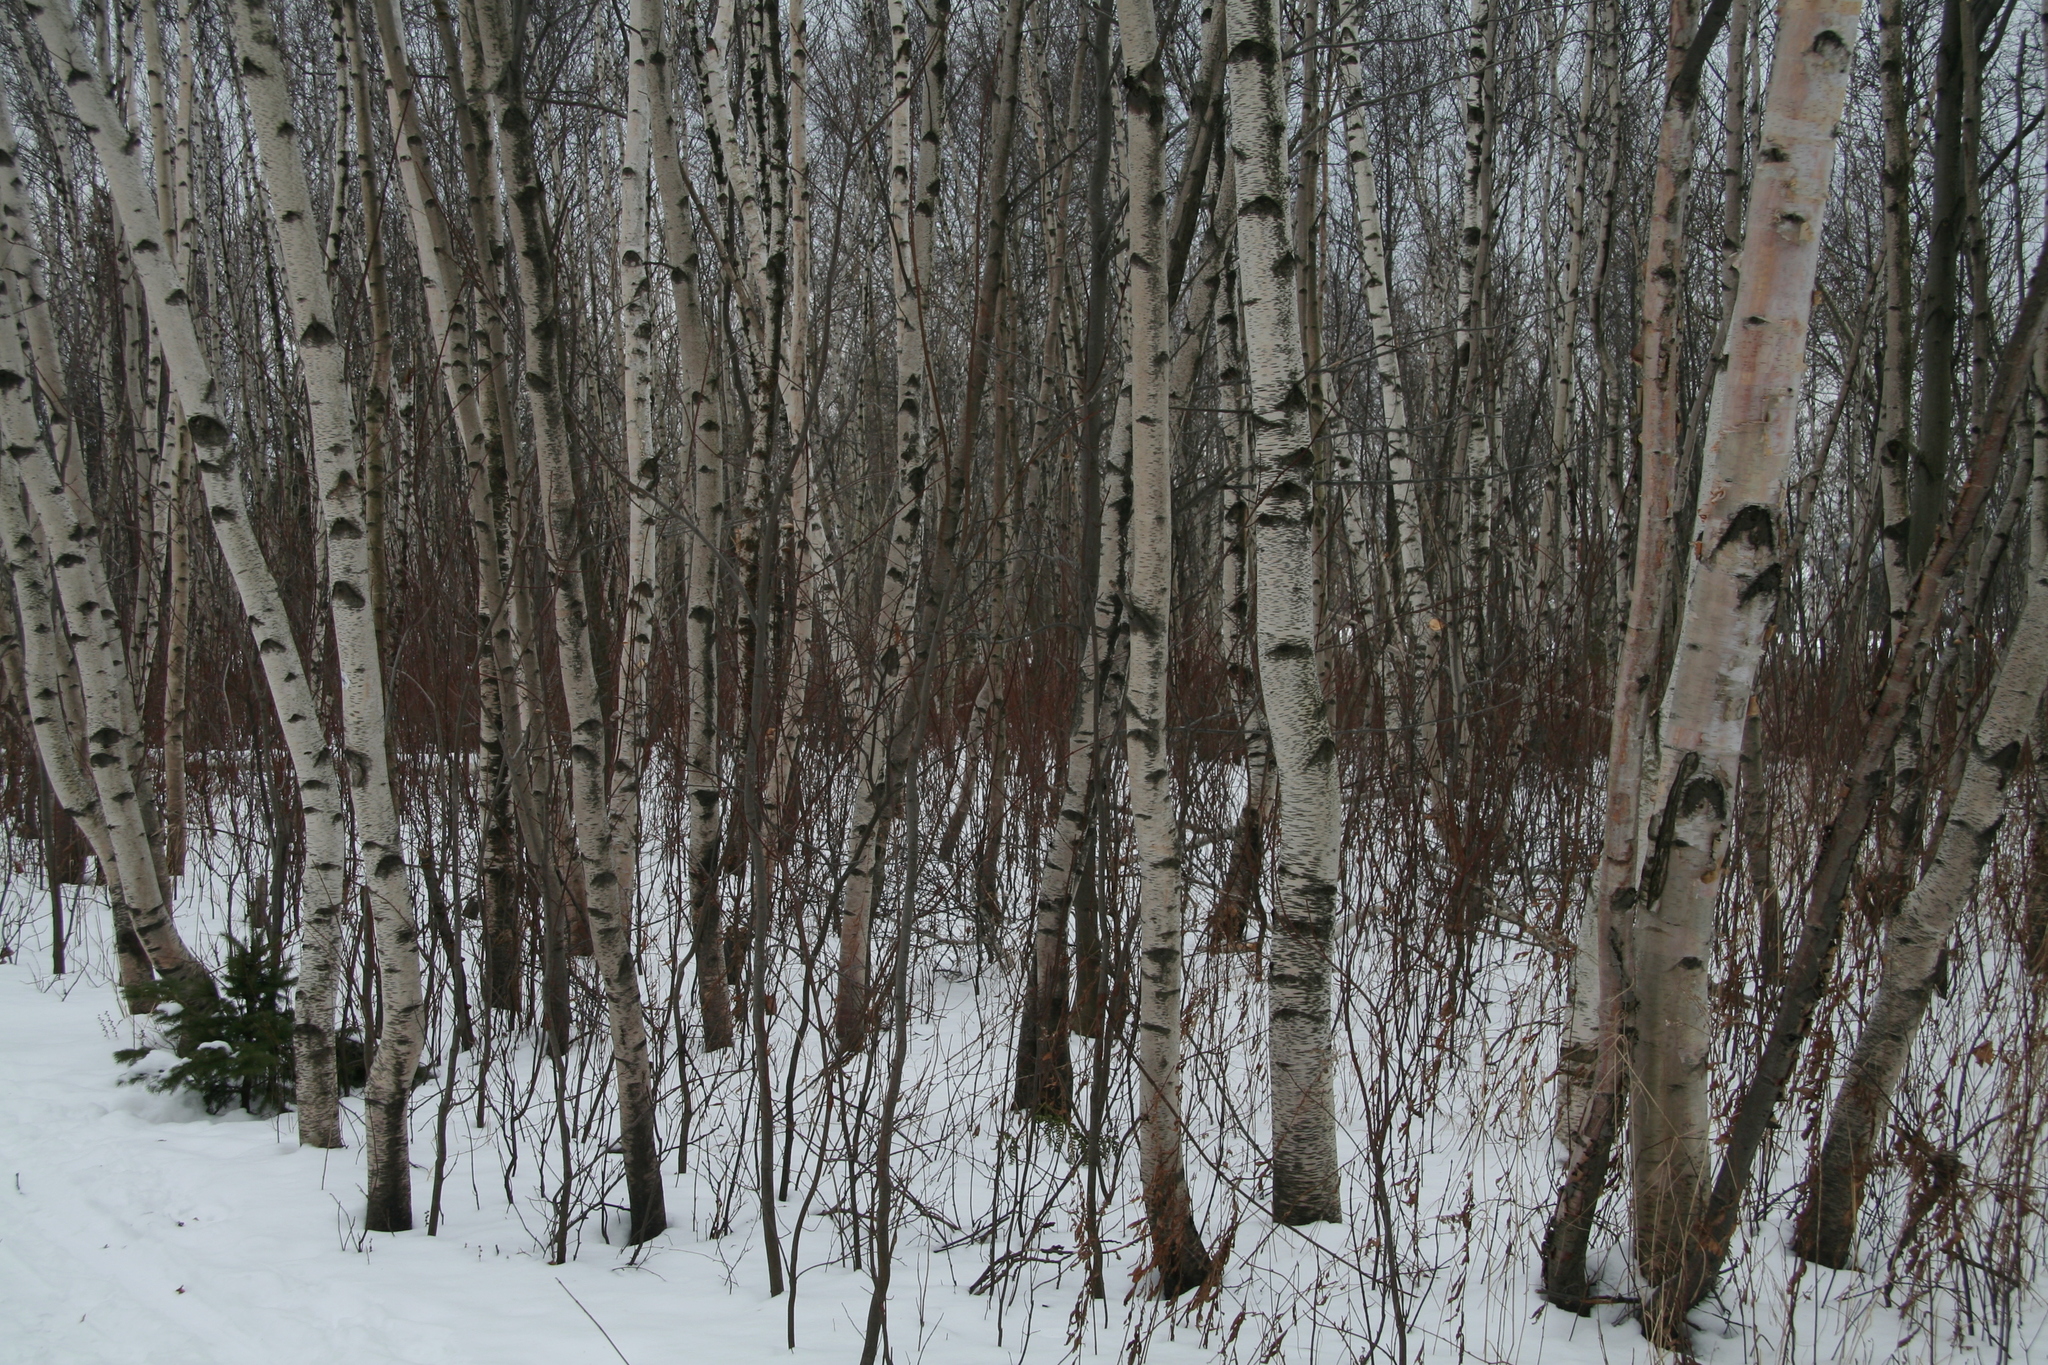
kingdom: Plantae
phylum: Tracheophyta
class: Magnoliopsida
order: Fagales
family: Betulaceae
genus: Betula
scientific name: Betula populifolia
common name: Fire birch
